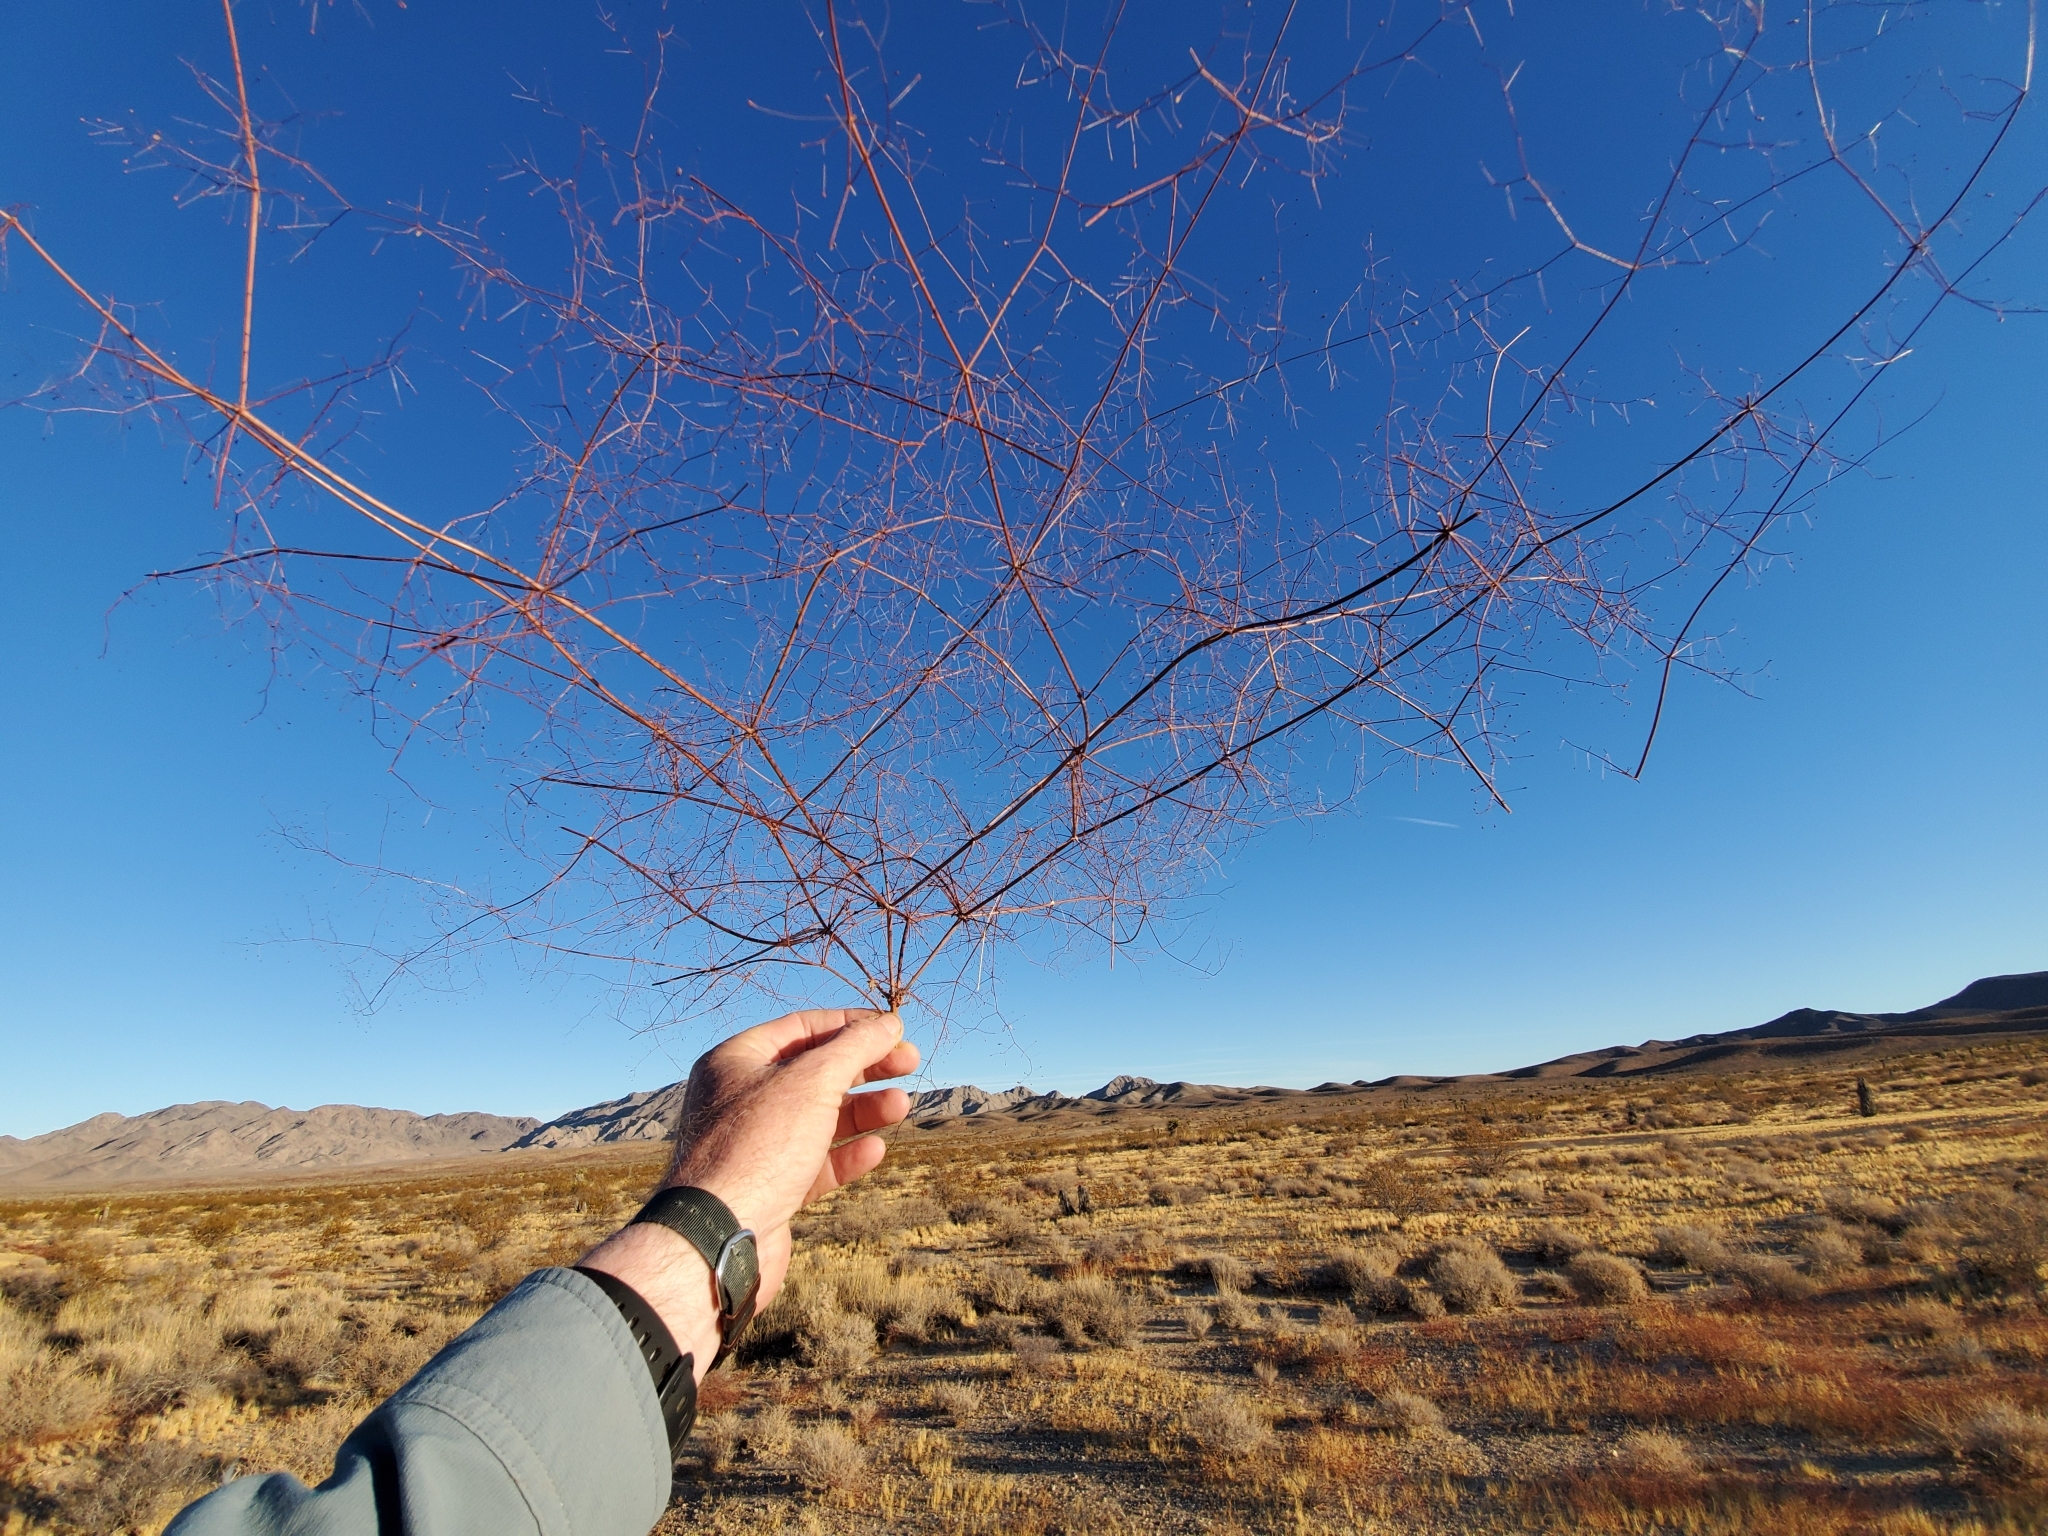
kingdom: Plantae
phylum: Tracheophyta
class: Magnoliopsida
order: Caryophyllales
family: Polygonaceae
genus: Eriogonum
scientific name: Eriogonum thomasii
